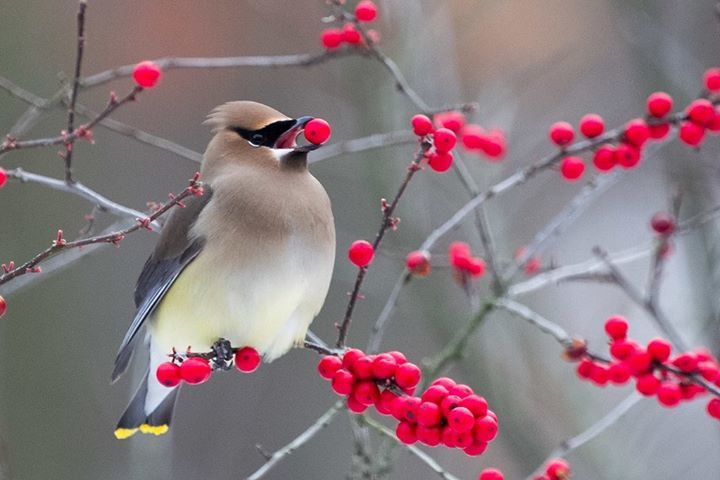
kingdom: Animalia
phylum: Chordata
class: Aves
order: Passeriformes
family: Bombycillidae
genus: Bombycilla
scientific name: Bombycilla cedrorum
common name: Cedar waxwing
